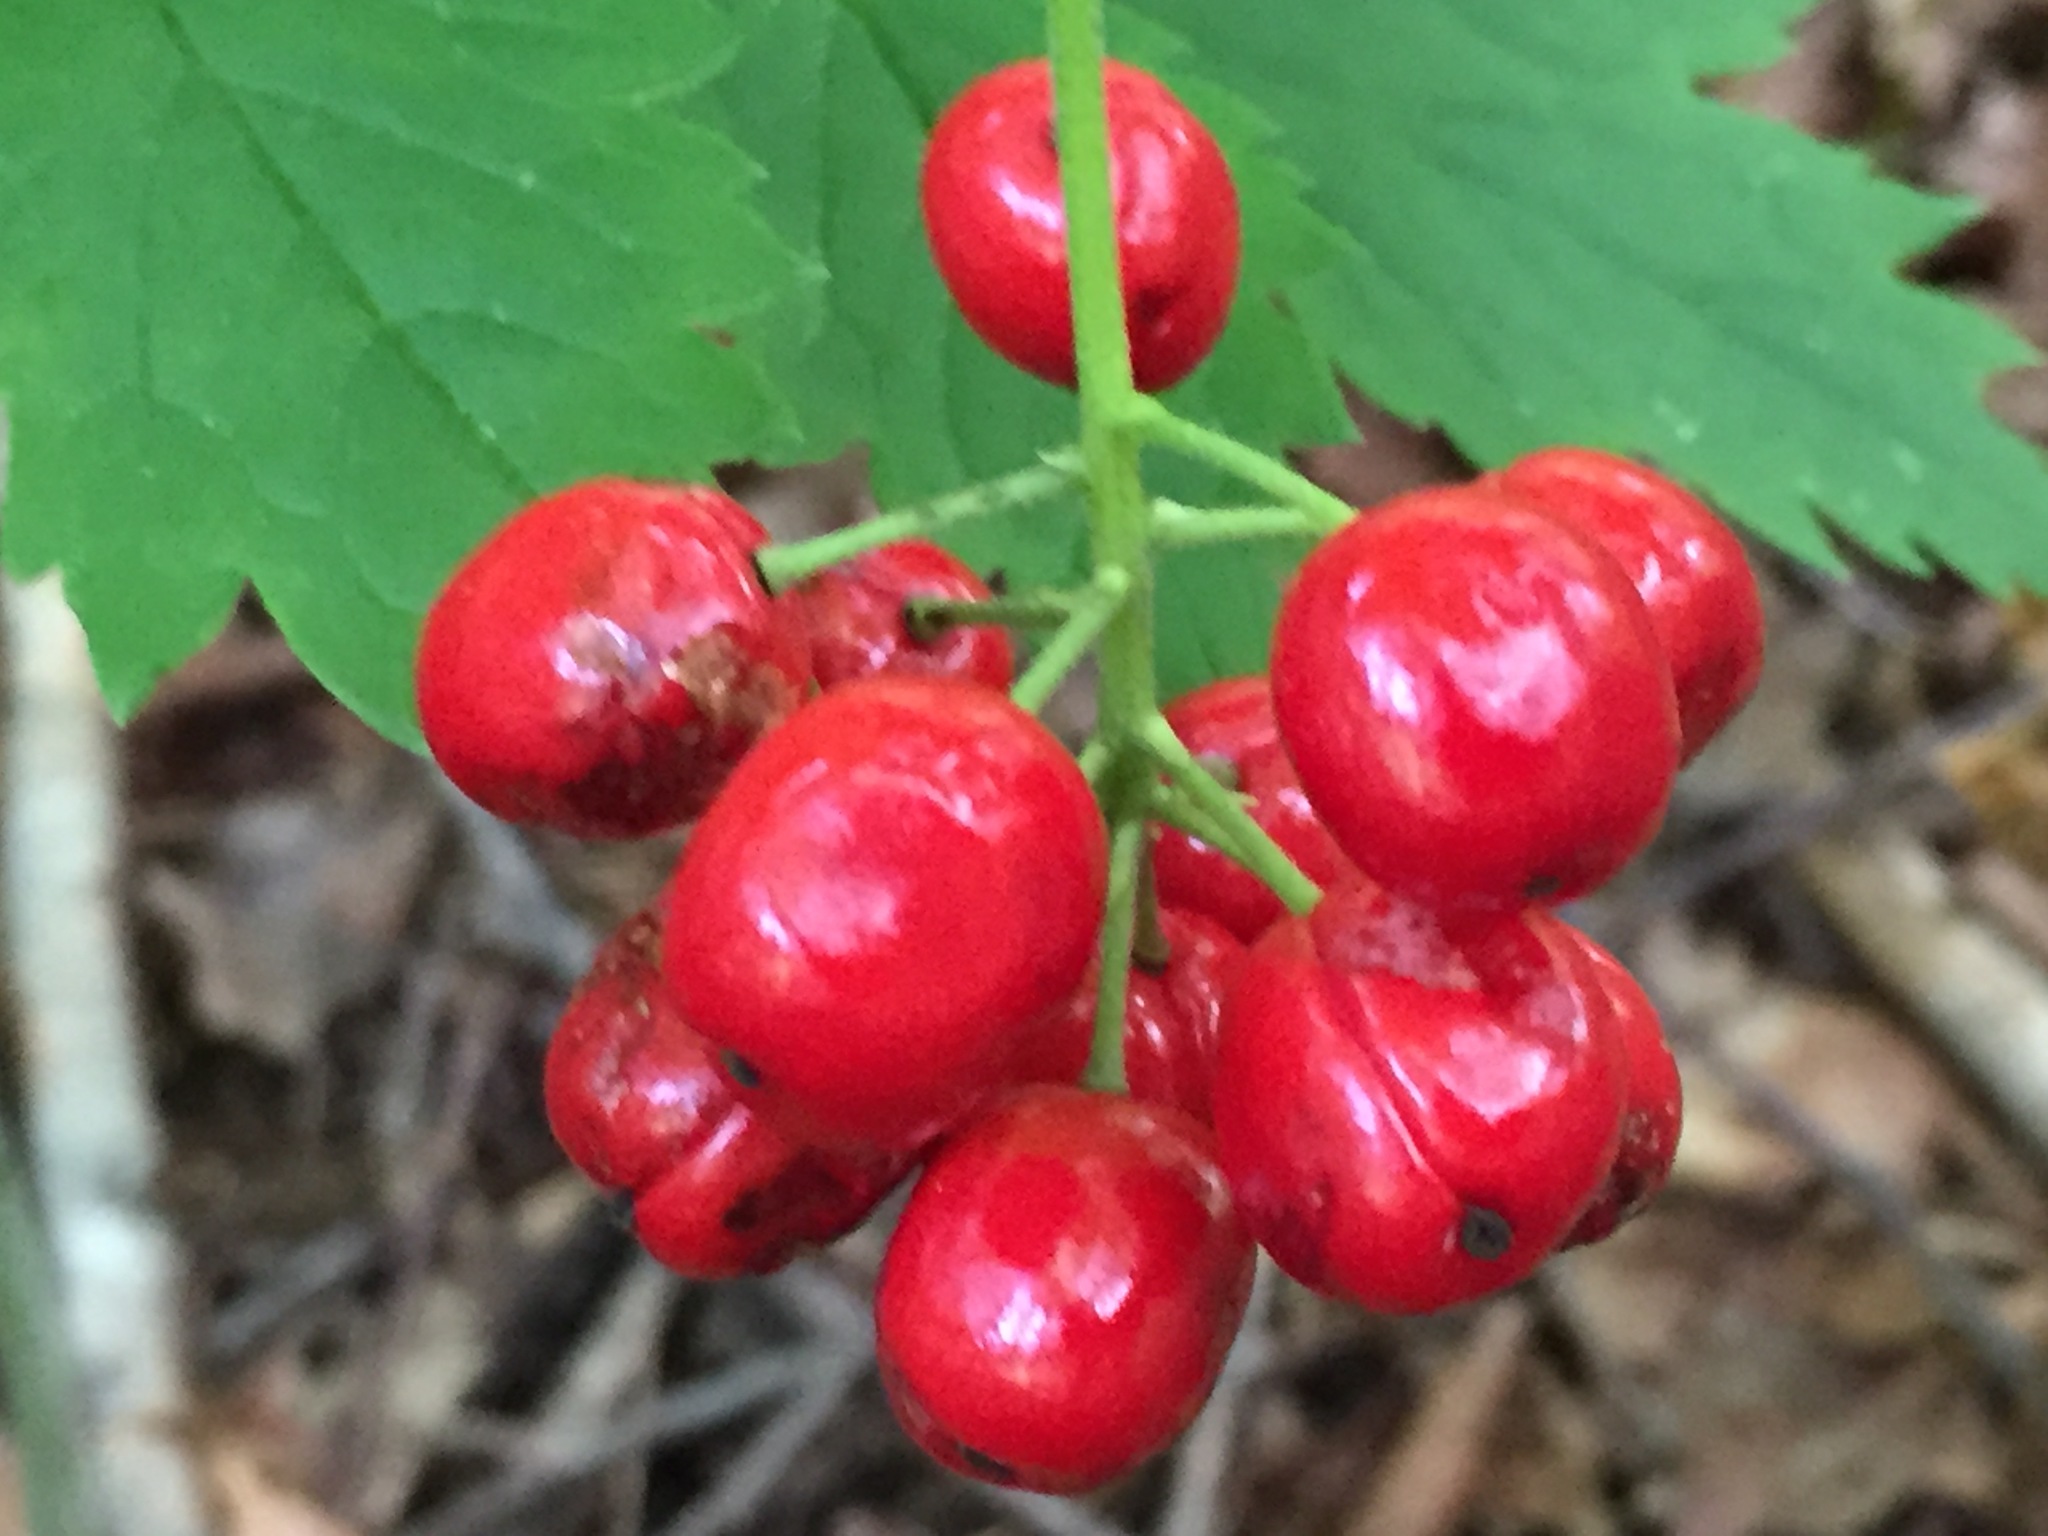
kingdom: Plantae
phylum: Tracheophyta
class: Magnoliopsida
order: Ranunculales
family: Ranunculaceae
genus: Actaea
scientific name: Actaea rubra
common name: Red baneberry
